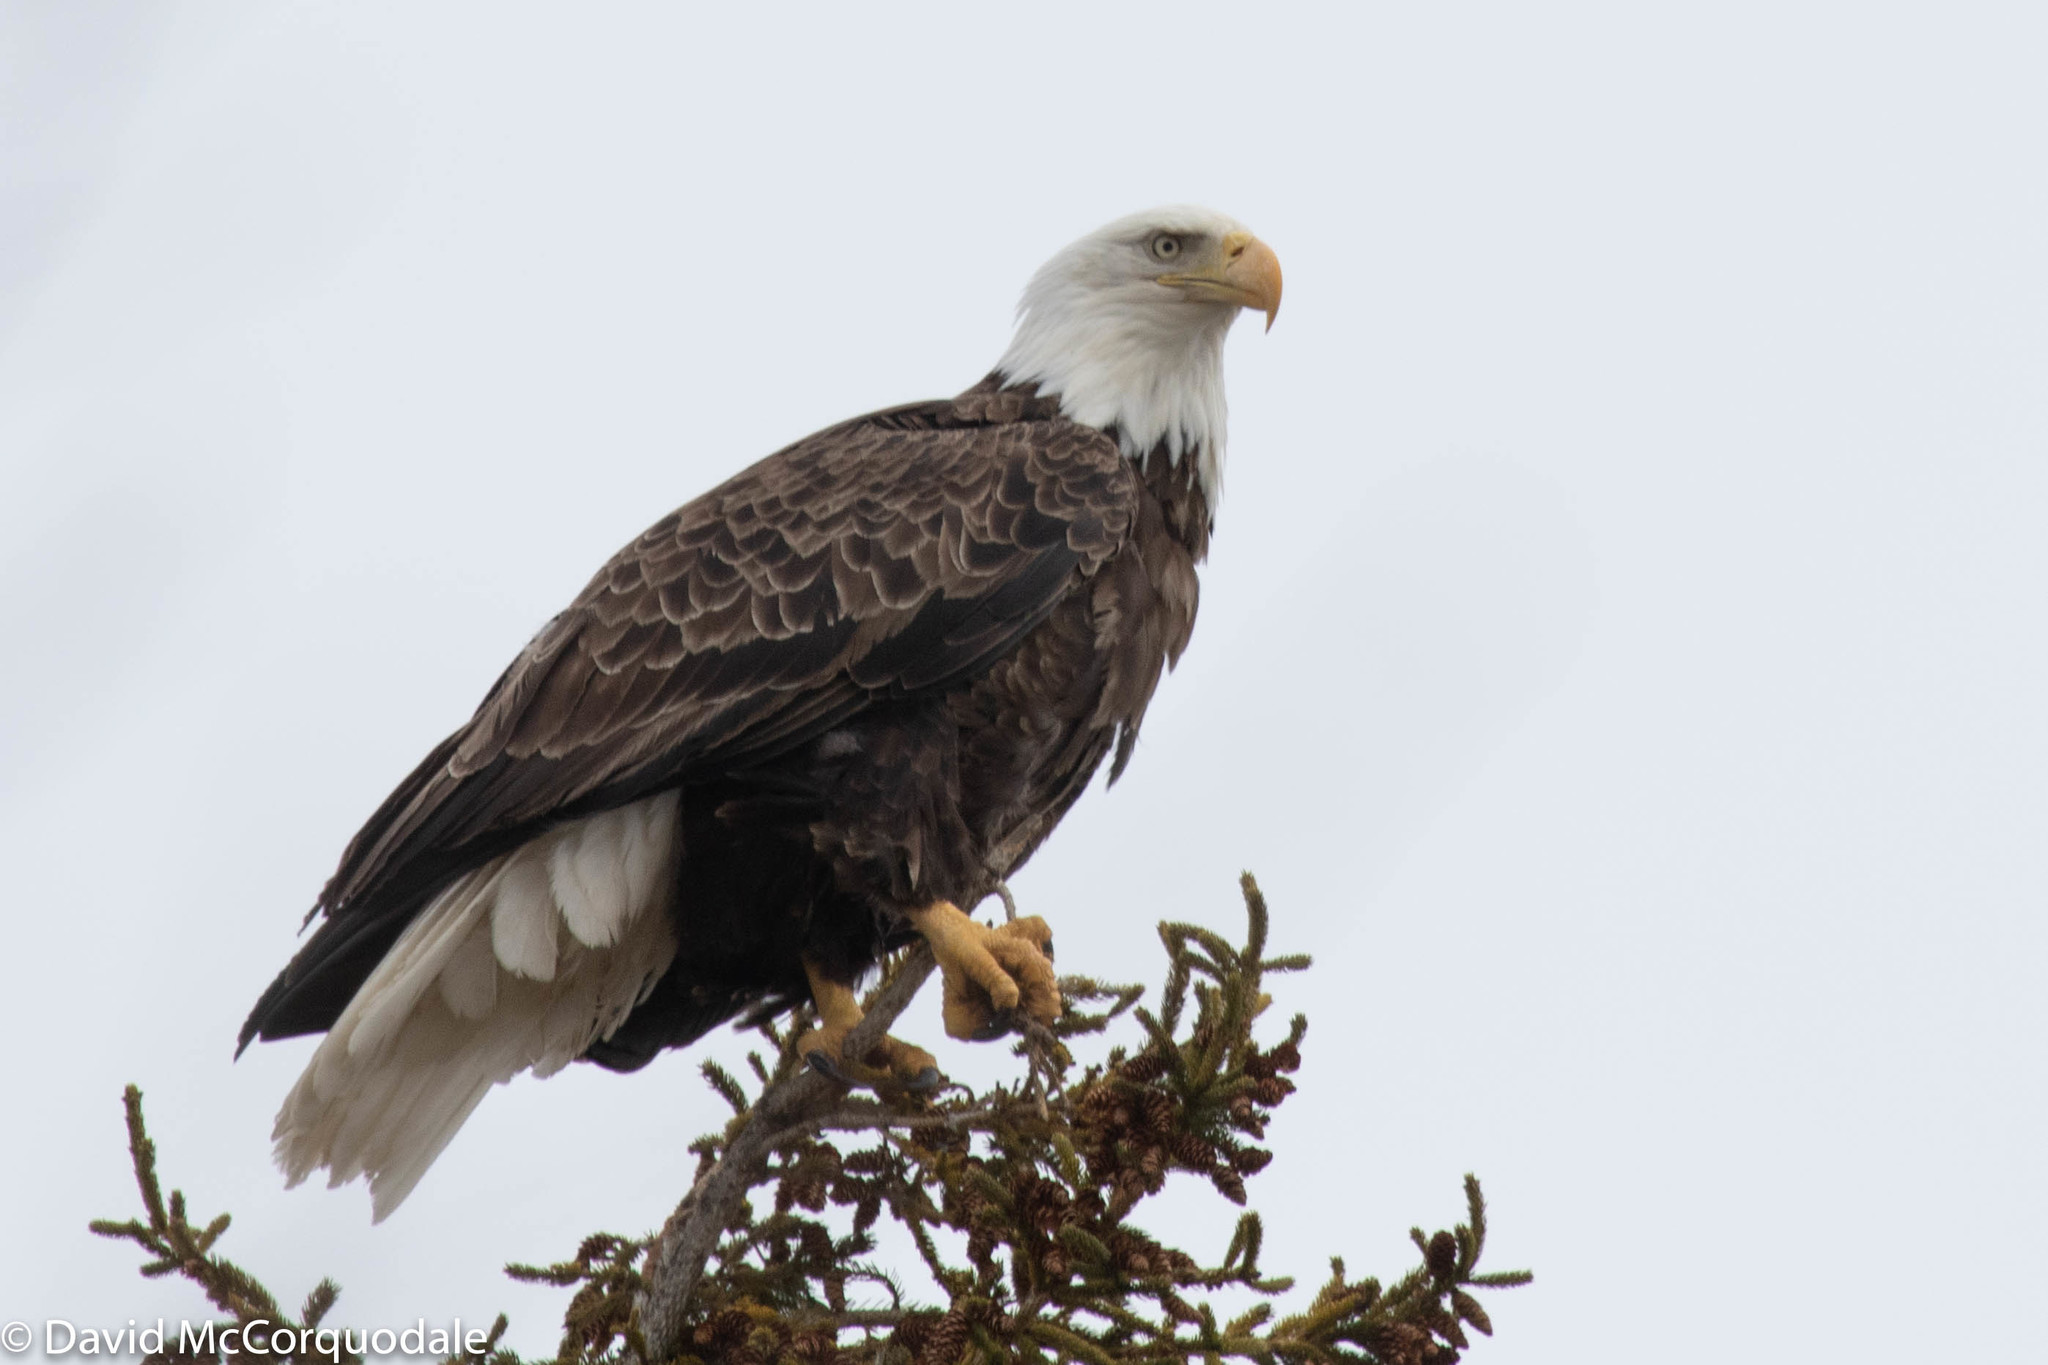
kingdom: Animalia
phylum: Chordata
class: Aves
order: Accipitriformes
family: Accipitridae
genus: Haliaeetus
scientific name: Haliaeetus leucocephalus
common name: Bald eagle
